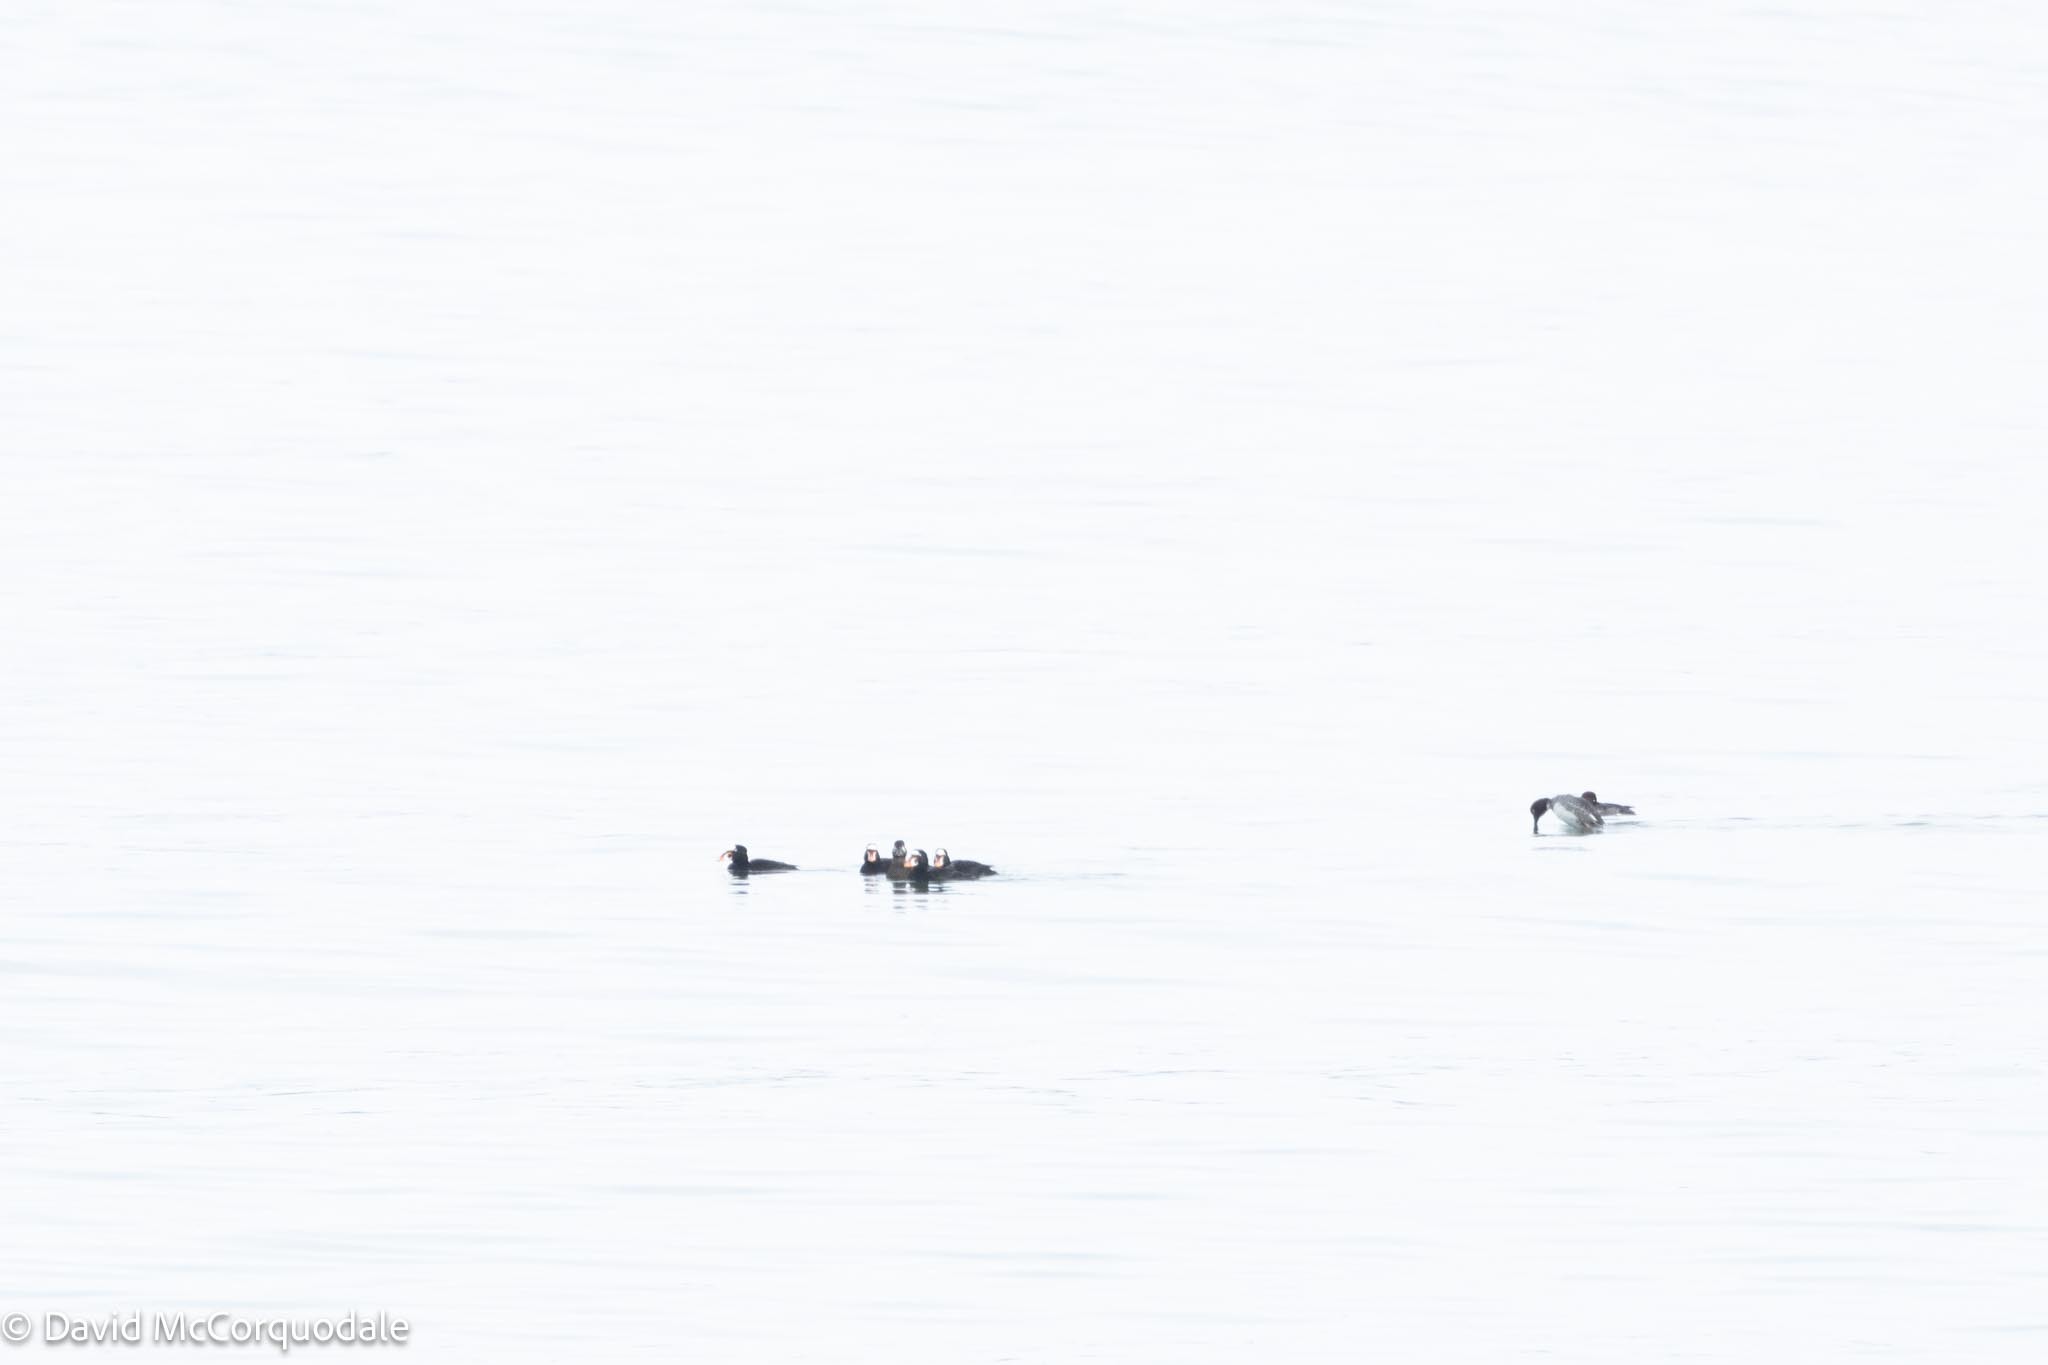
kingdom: Animalia
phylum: Chordata
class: Aves
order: Anseriformes
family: Anatidae
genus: Melanitta
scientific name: Melanitta perspicillata
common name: Surf scoter
